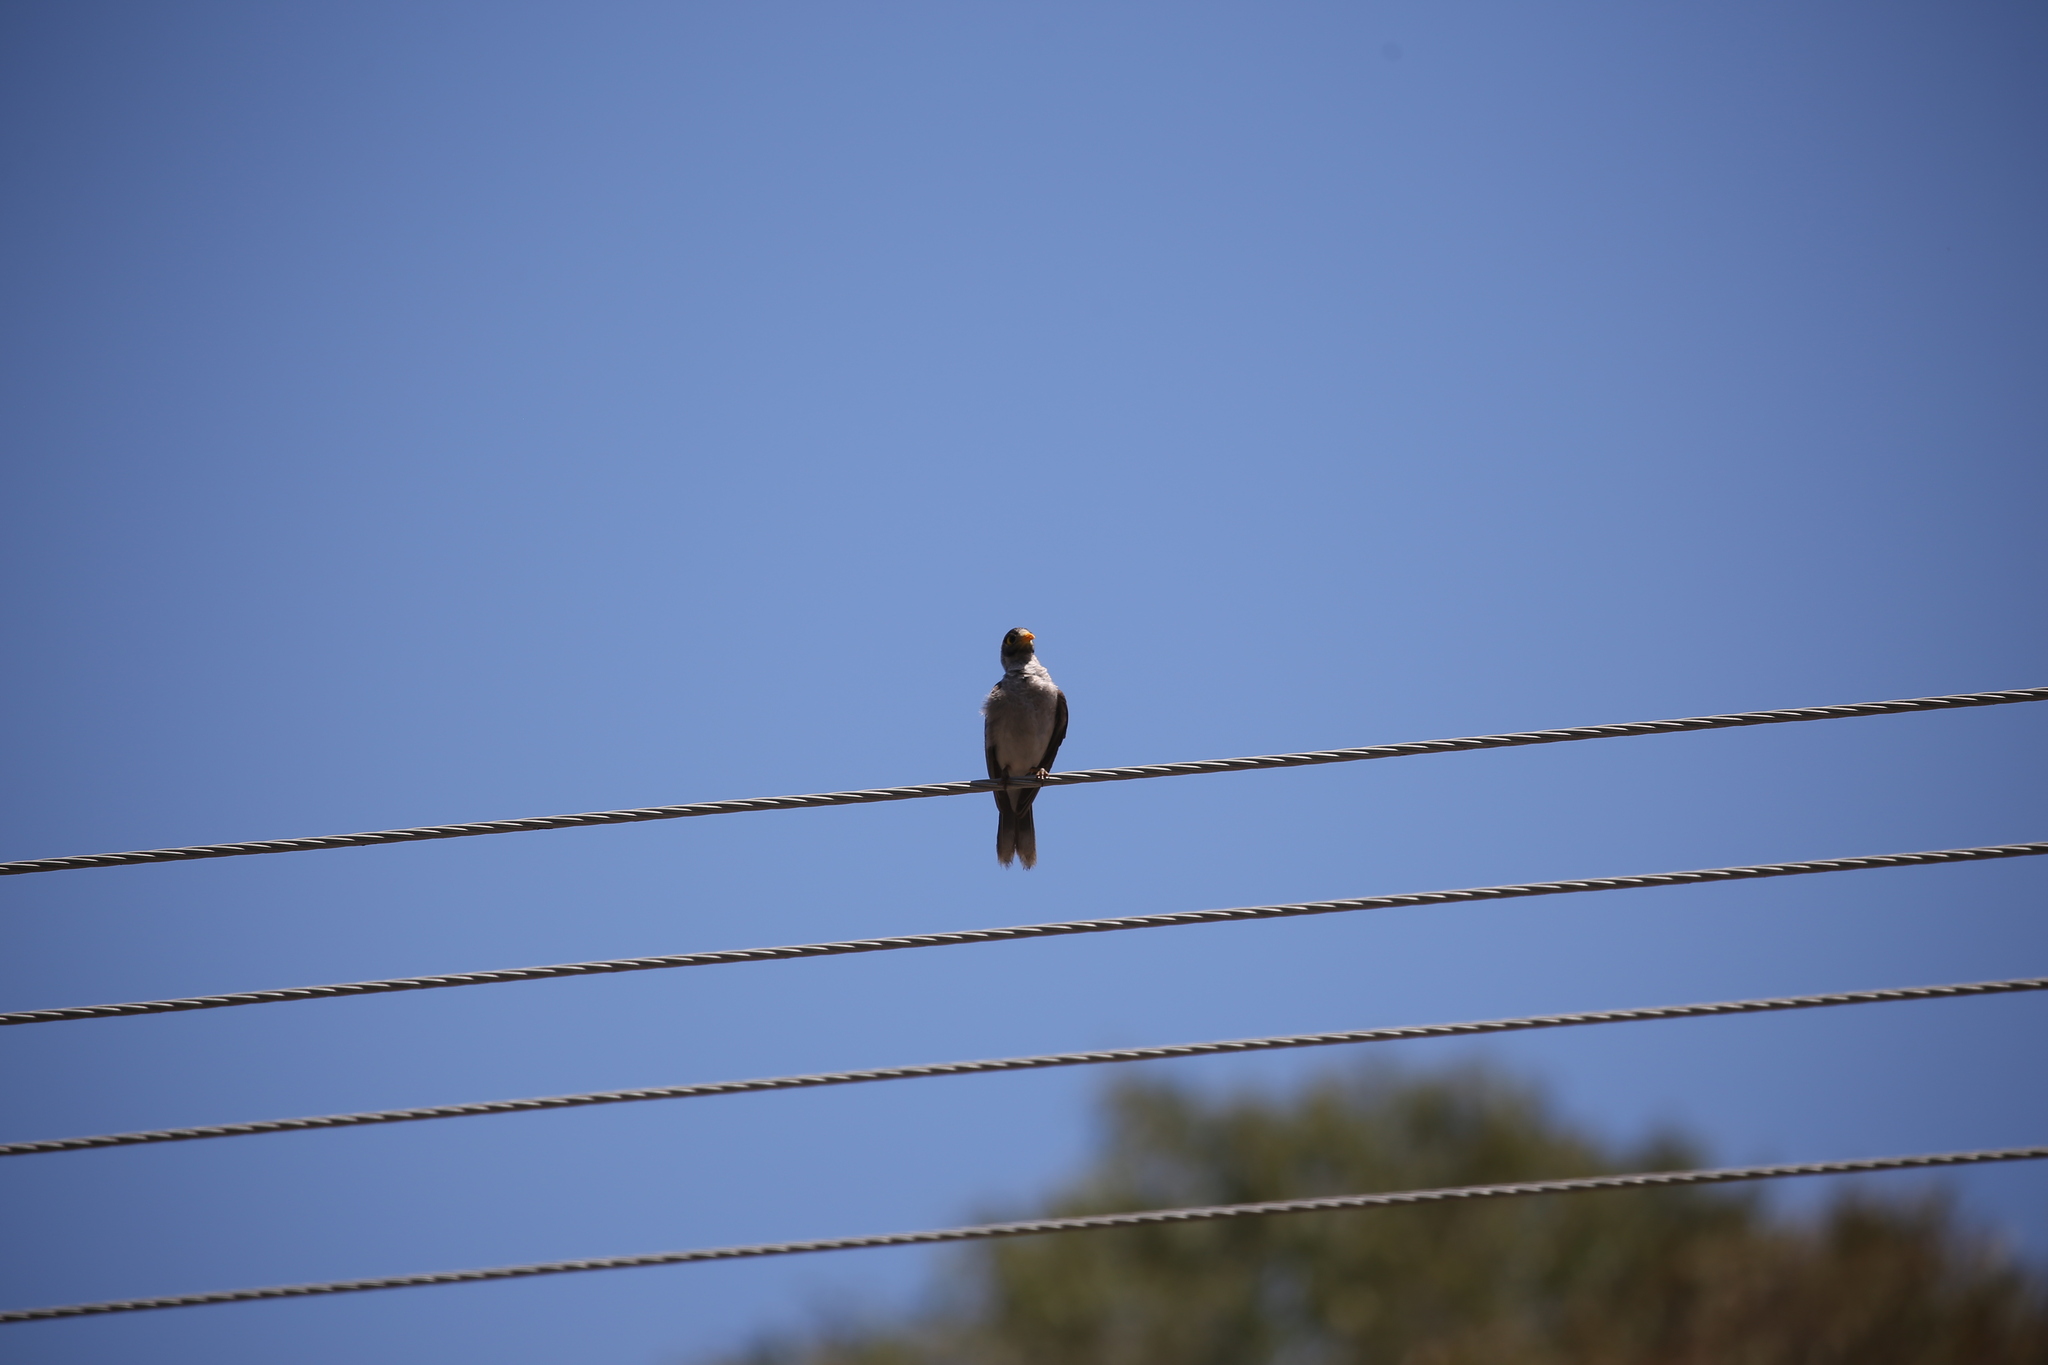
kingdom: Animalia
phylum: Chordata
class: Aves
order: Passeriformes
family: Meliphagidae
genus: Manorina
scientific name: Manorina melanocephala
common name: Noisy miner
